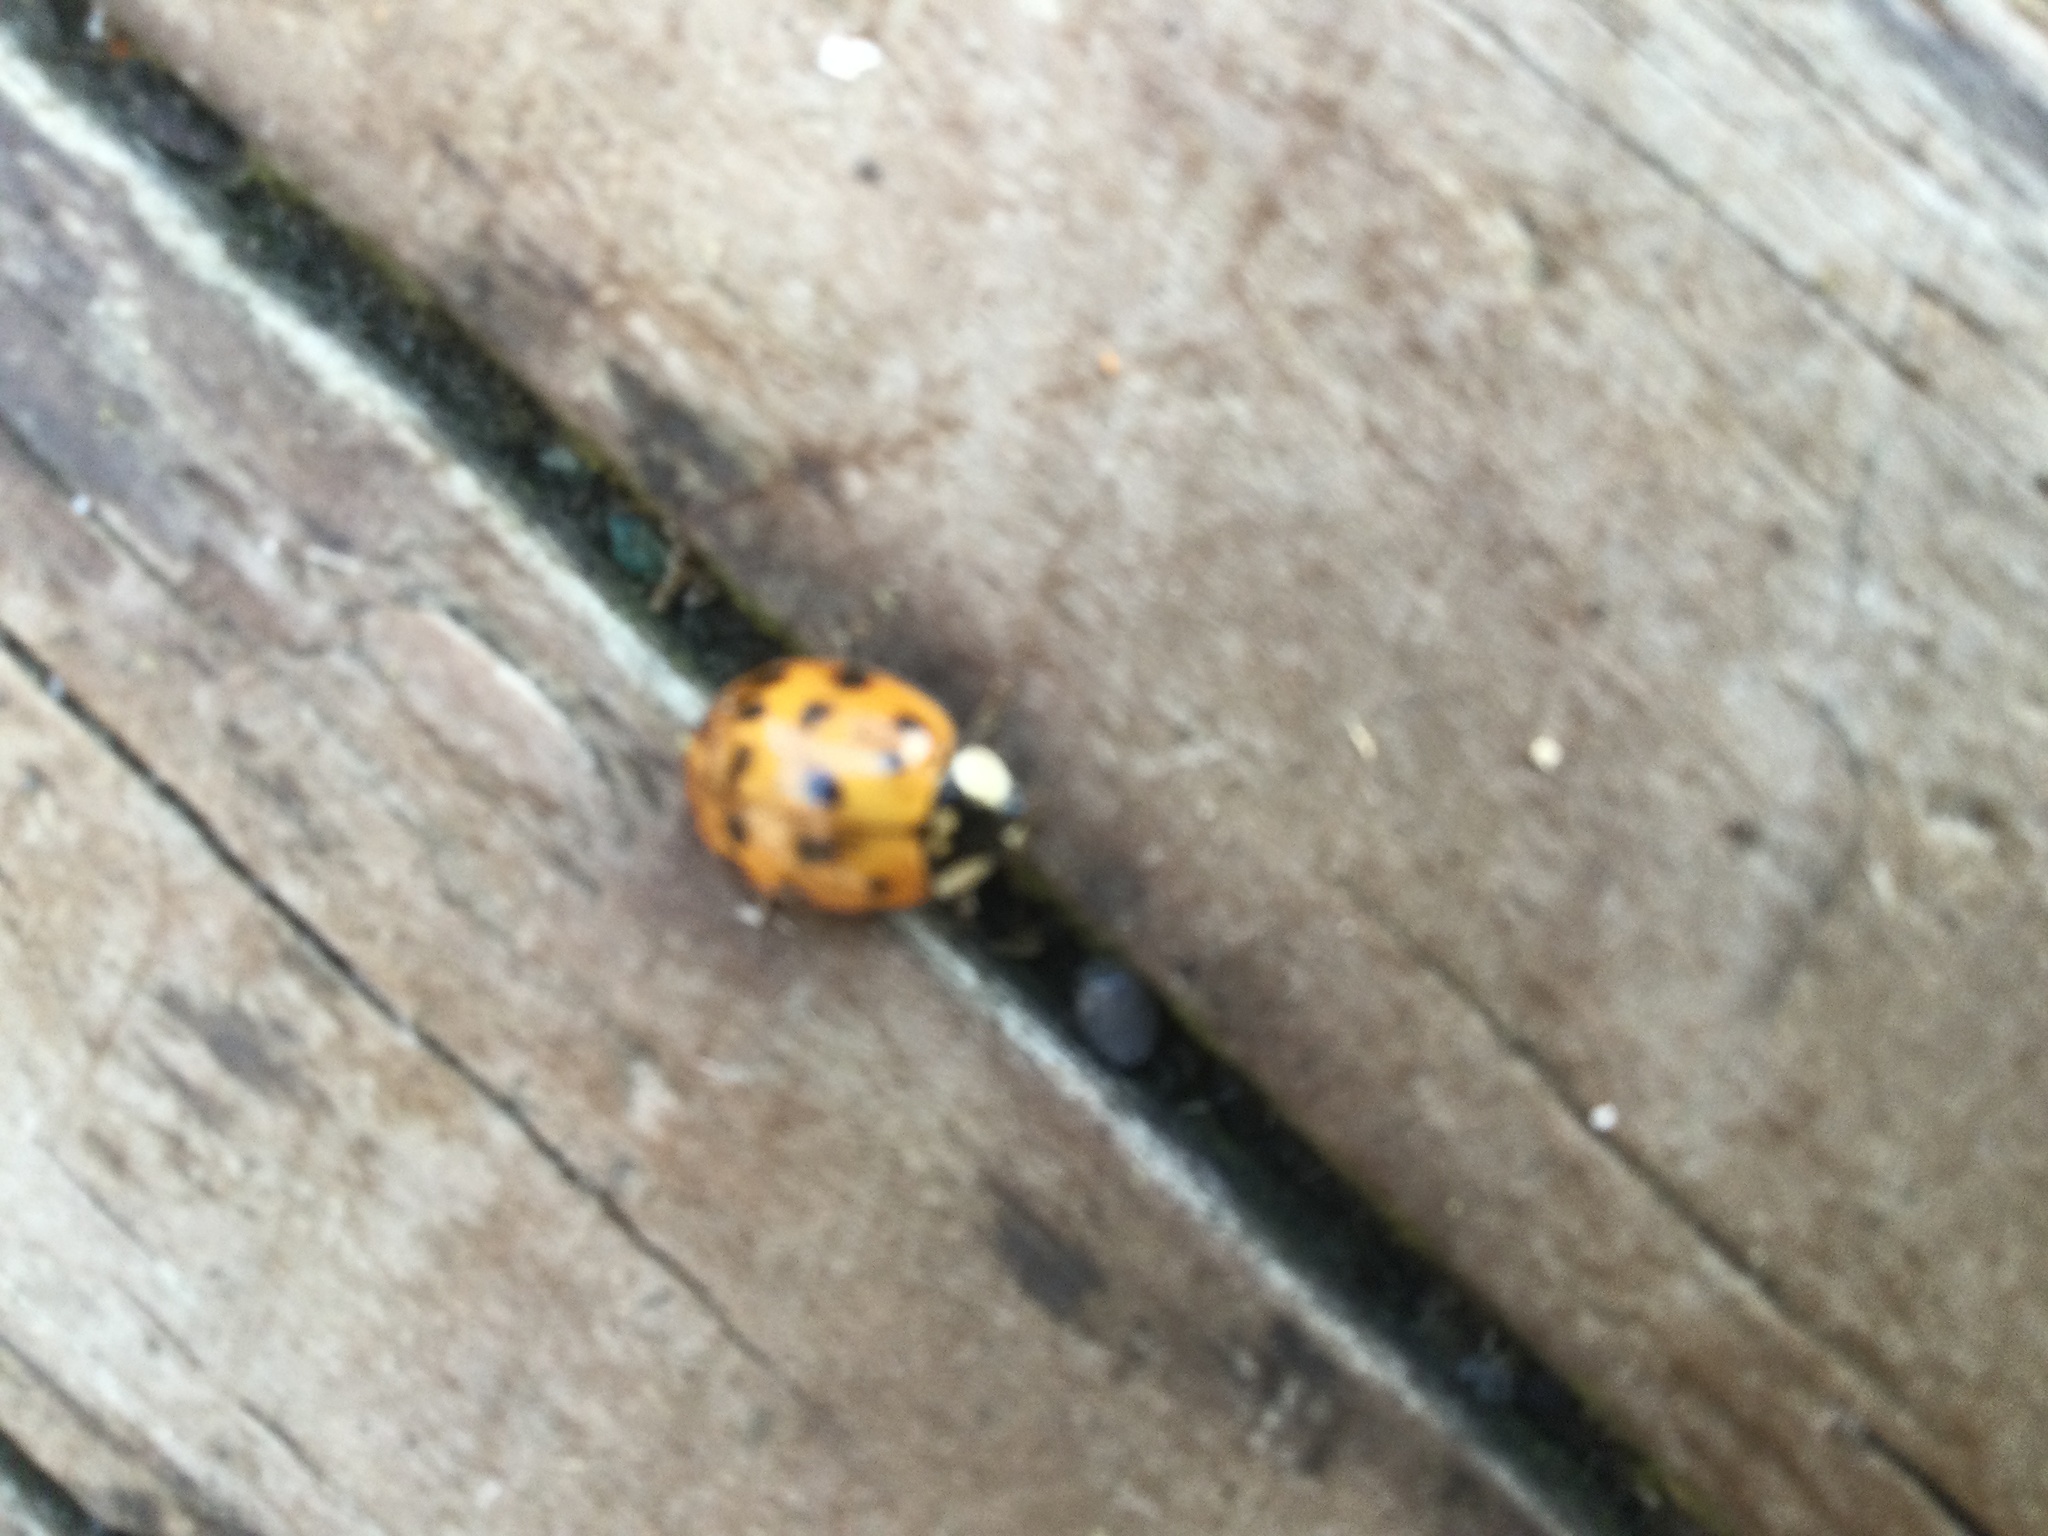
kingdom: Animalia
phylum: Arthropoda
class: Insecta
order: Coleoptera
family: Coccinellidae
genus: Harmonia
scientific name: Harmonia axyridis
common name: Harlequin ladybird
